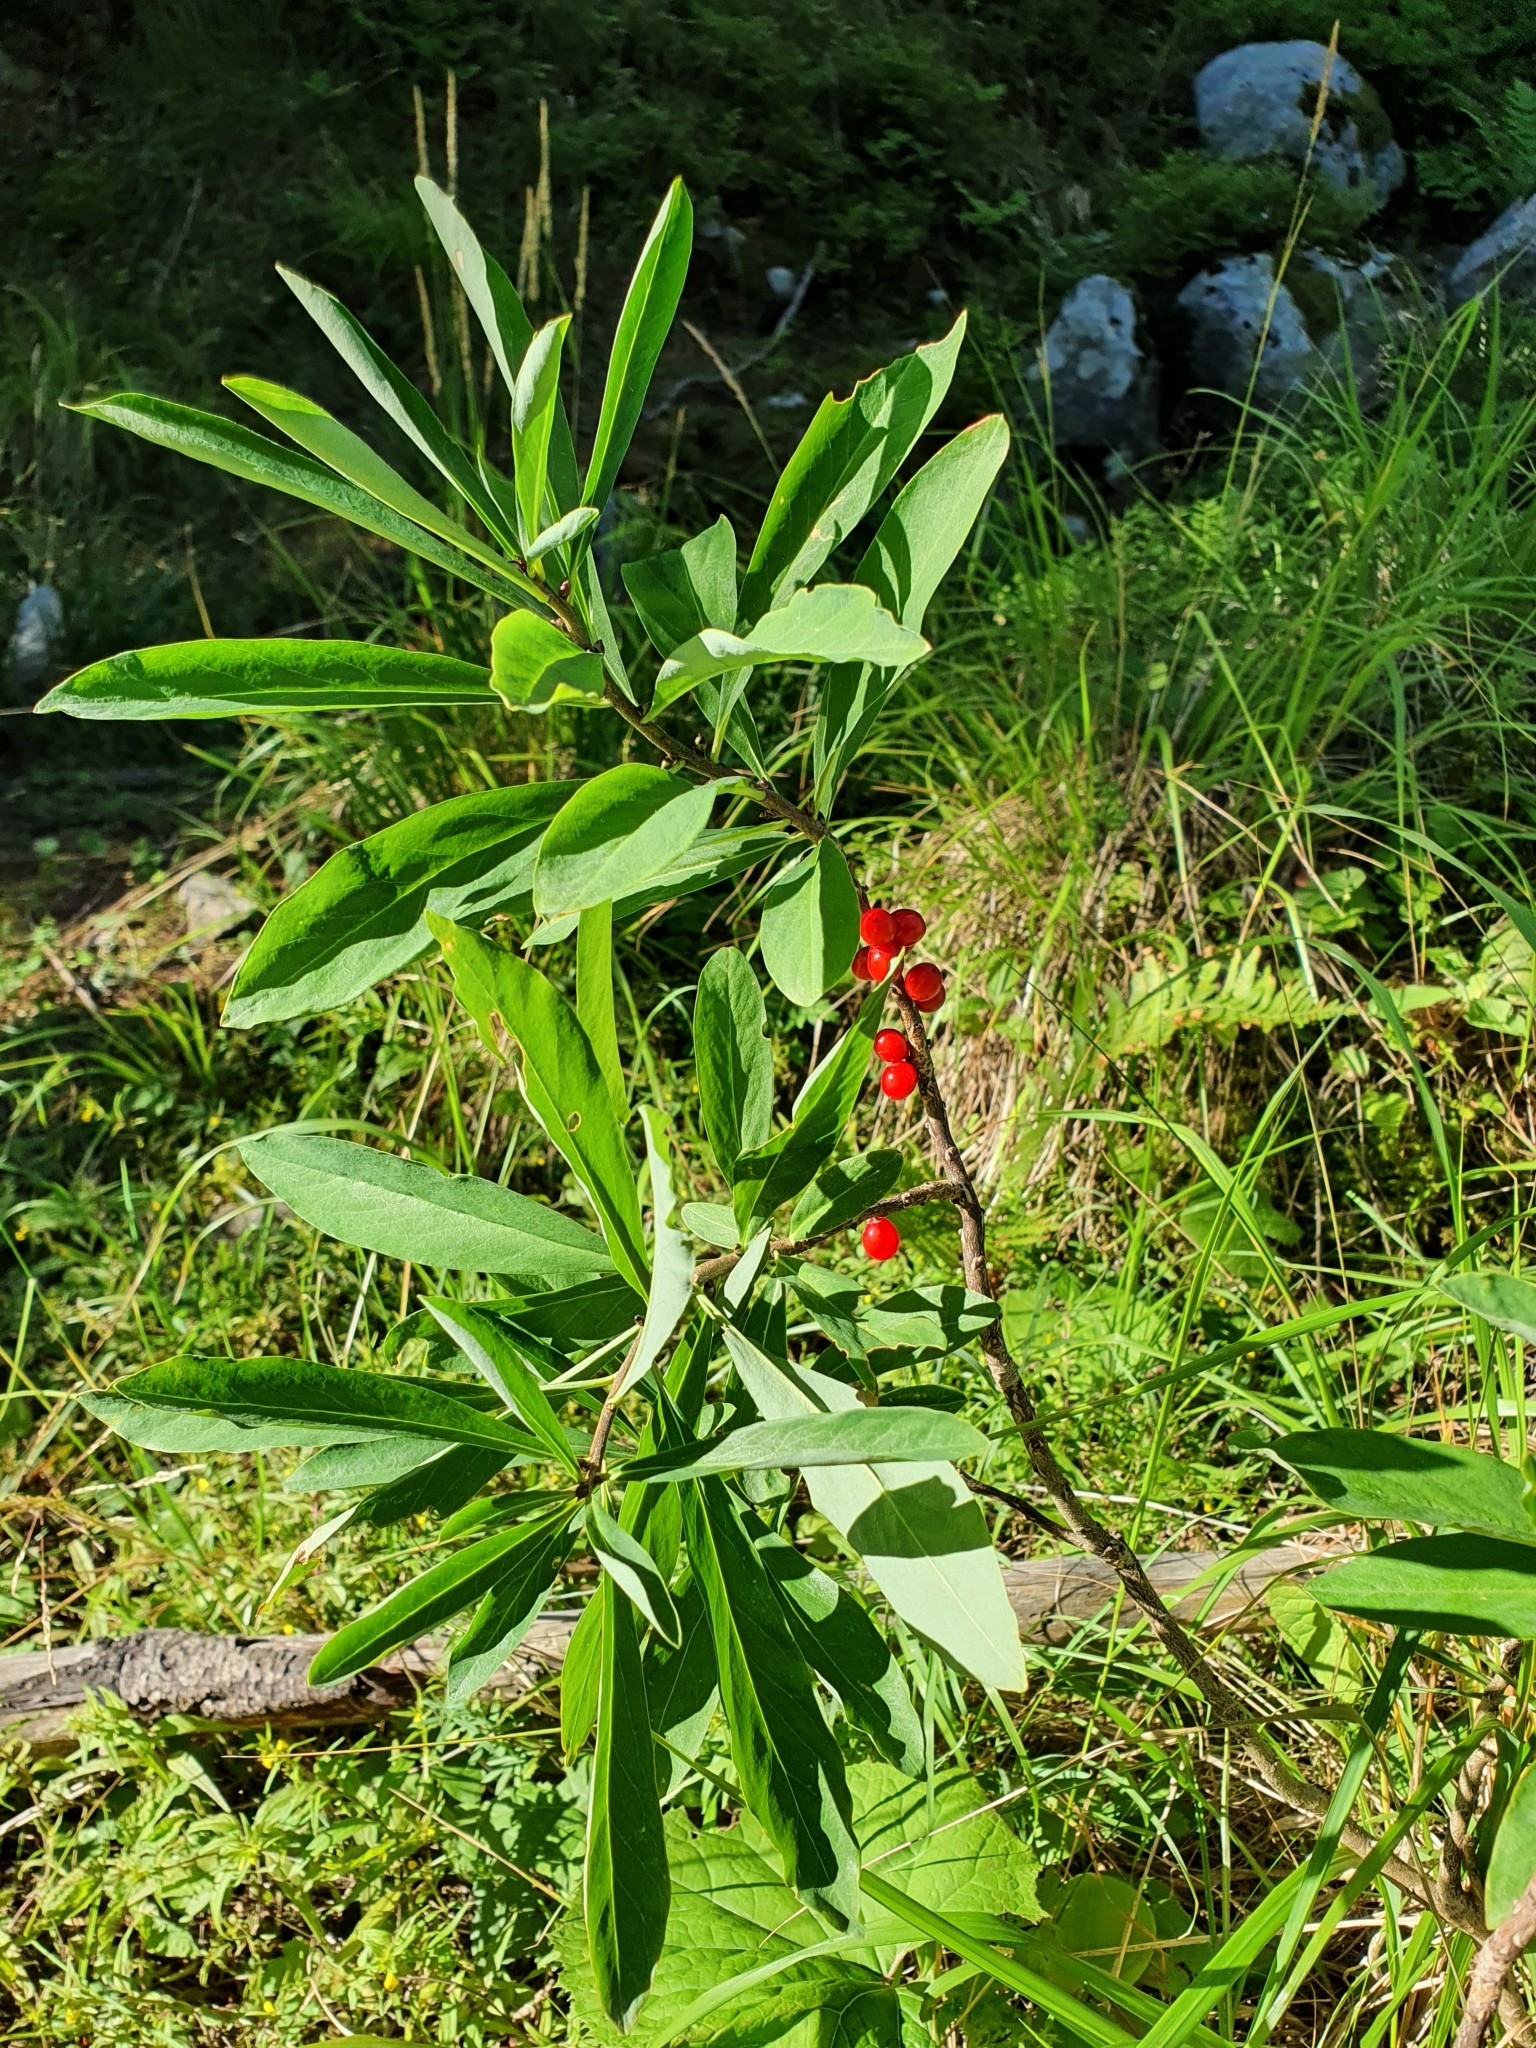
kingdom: Plantae
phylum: Tracheophyta
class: Magnoliopsida
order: Malvales
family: Thymelaeaceae
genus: Daphne
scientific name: Daphne mezereum
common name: Mezereon
